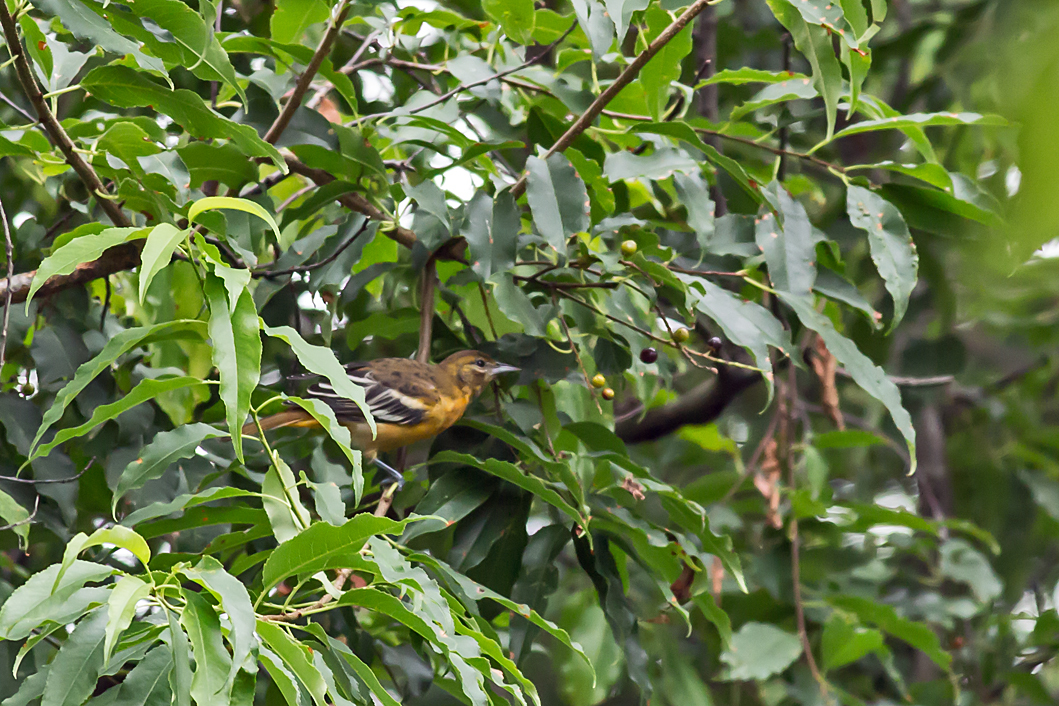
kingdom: Animalia
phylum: Chordata
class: Aves
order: Passeriformes
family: Icteridae
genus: Icterus
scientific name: Icterus galbula
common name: Baltimore oriole
